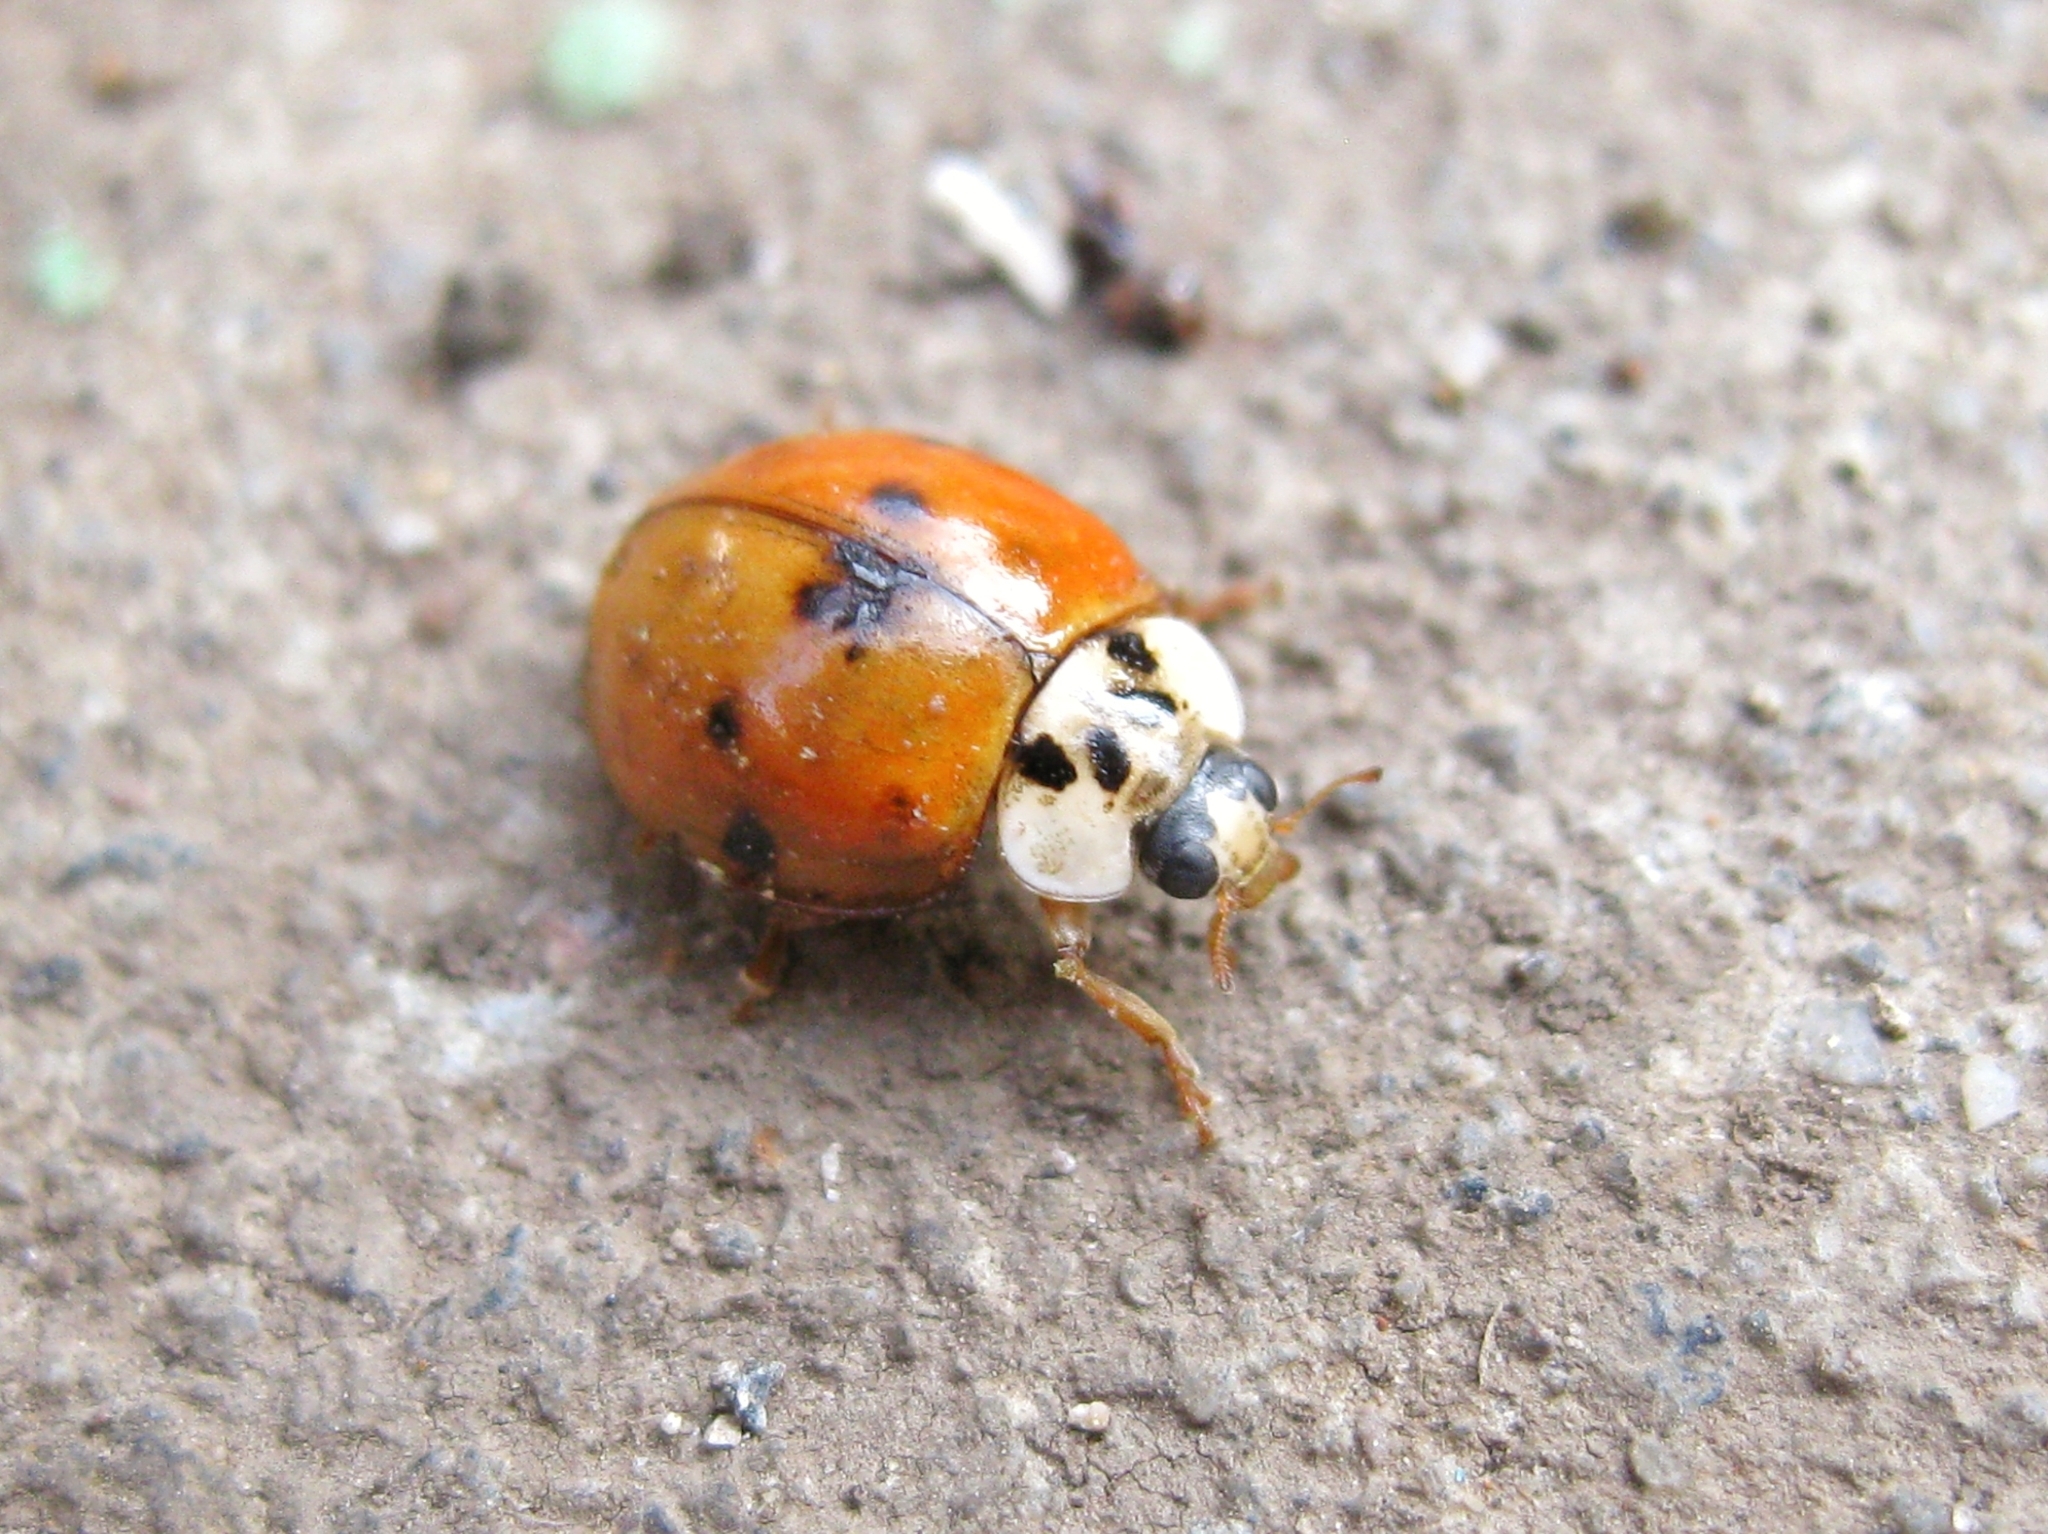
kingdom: Animalia
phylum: Arthropoda
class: Insecta
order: Coleoptera
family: Coccinellidae
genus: Harmonia
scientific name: Harmonia axyridis
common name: Harlequin ladybird
